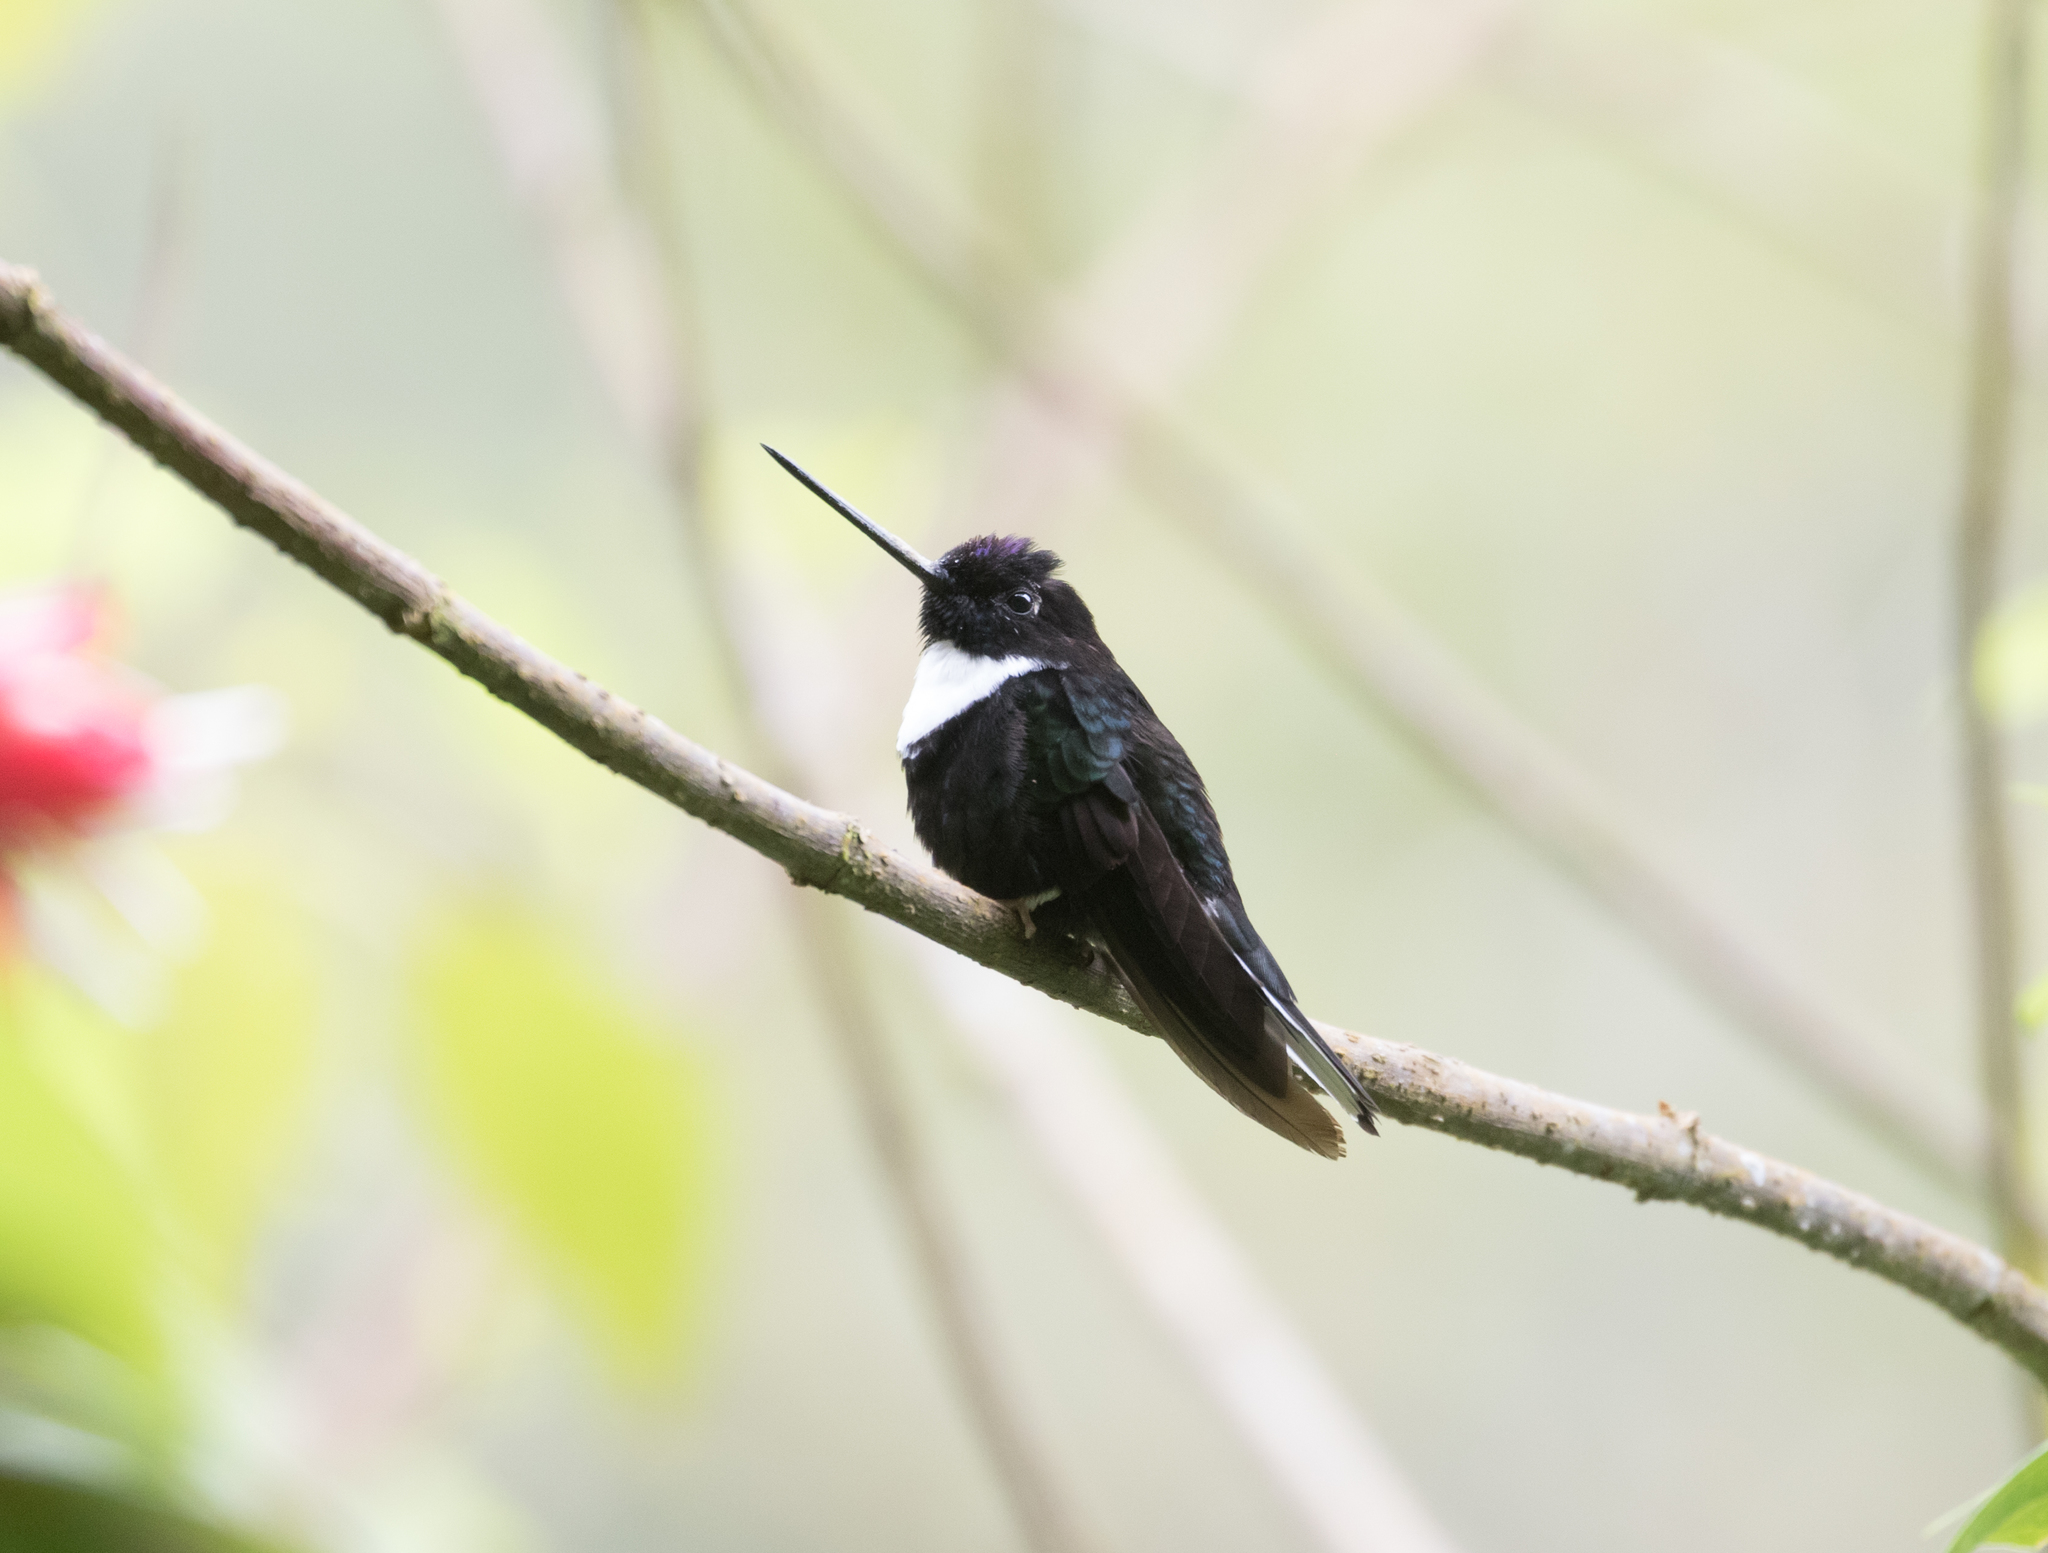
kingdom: Animalia
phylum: Chordata
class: Aves
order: Apodiformes
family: Trochilidae
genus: Coeligena
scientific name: Coeligena torquata
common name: Collared inca
